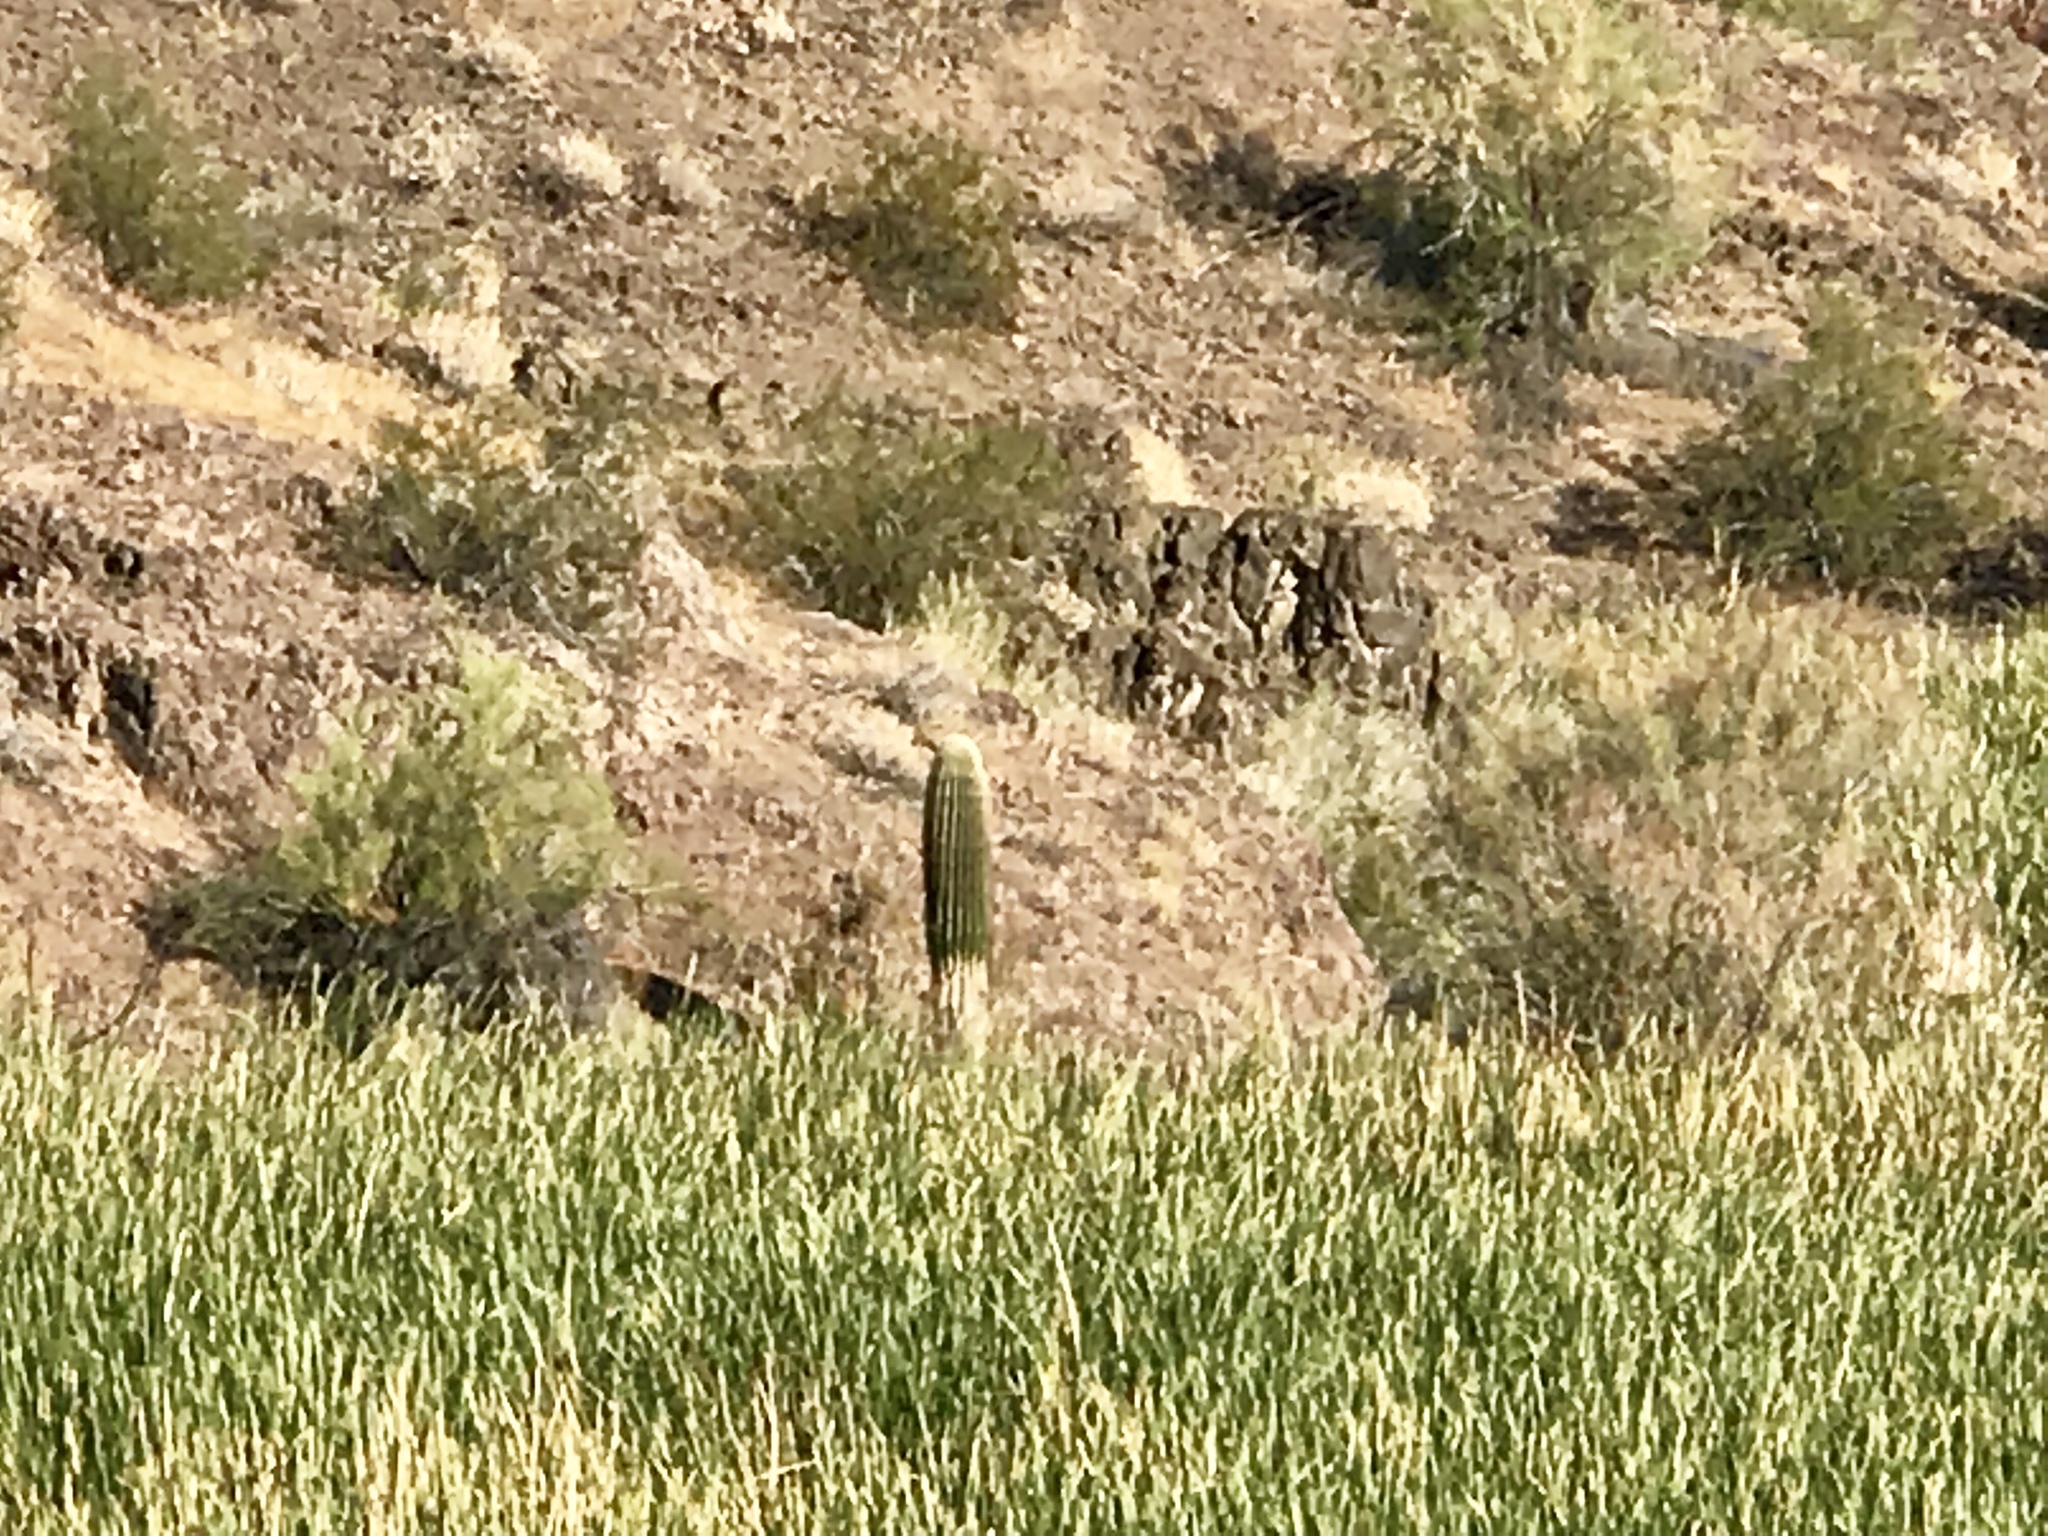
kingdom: Plantae
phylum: Tracheophyta
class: Magnoliopsida
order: Caryophyllales
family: Cactaceae
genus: Carnegiea
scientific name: Carnegiea gigantea
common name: Saguaro
